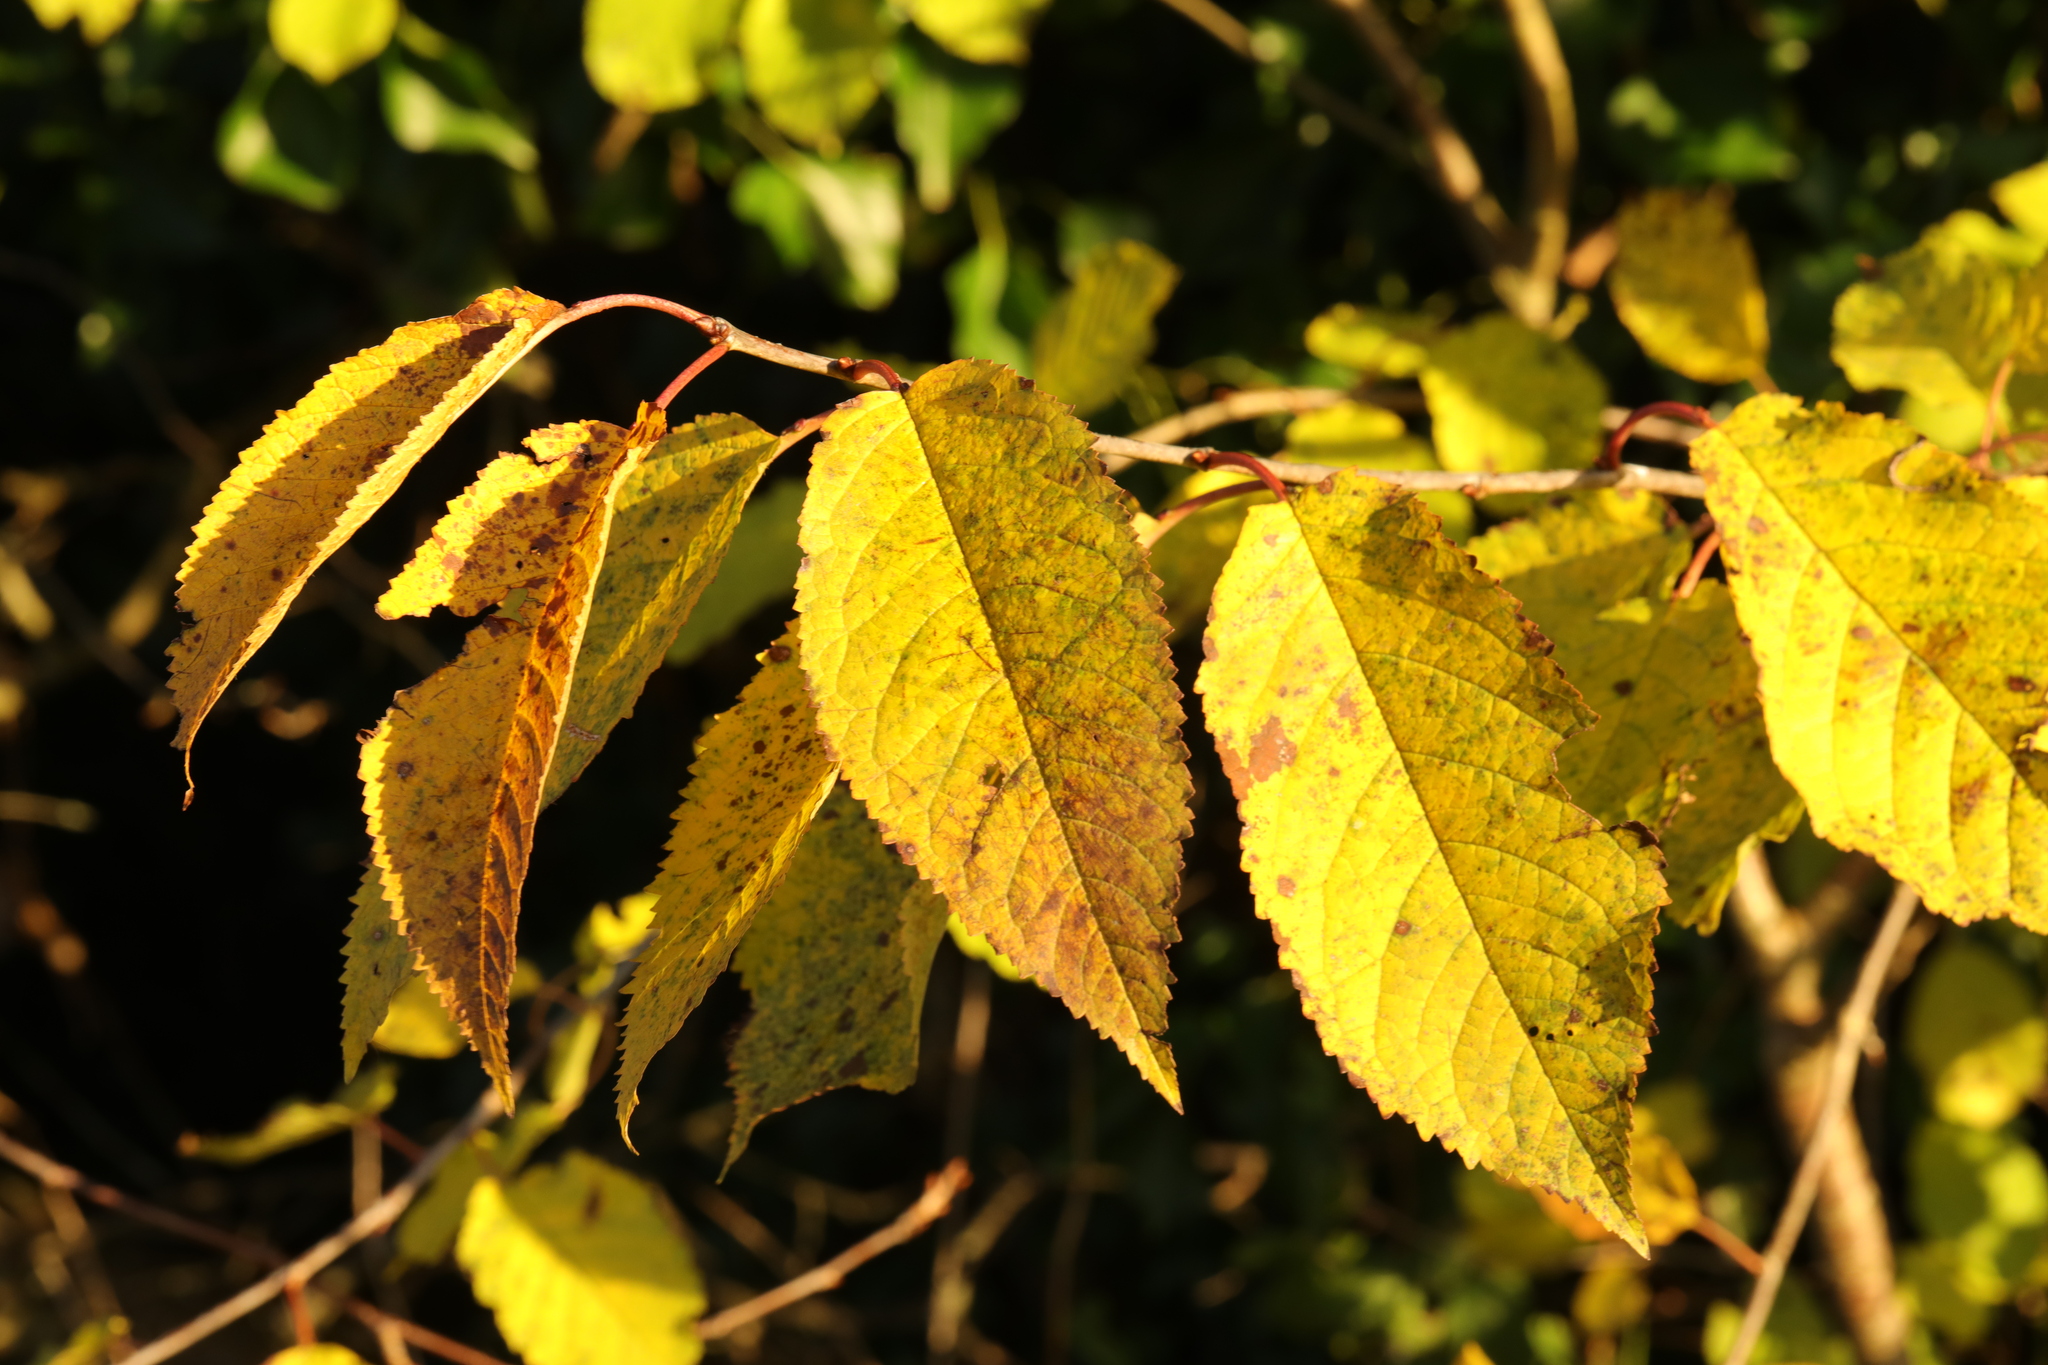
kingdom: Plantae
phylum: Tracheophyta
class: Magnoliopsida
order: Rosales
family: Rosaceae
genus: Prunus
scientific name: Prunus avium
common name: Sweet cherry
